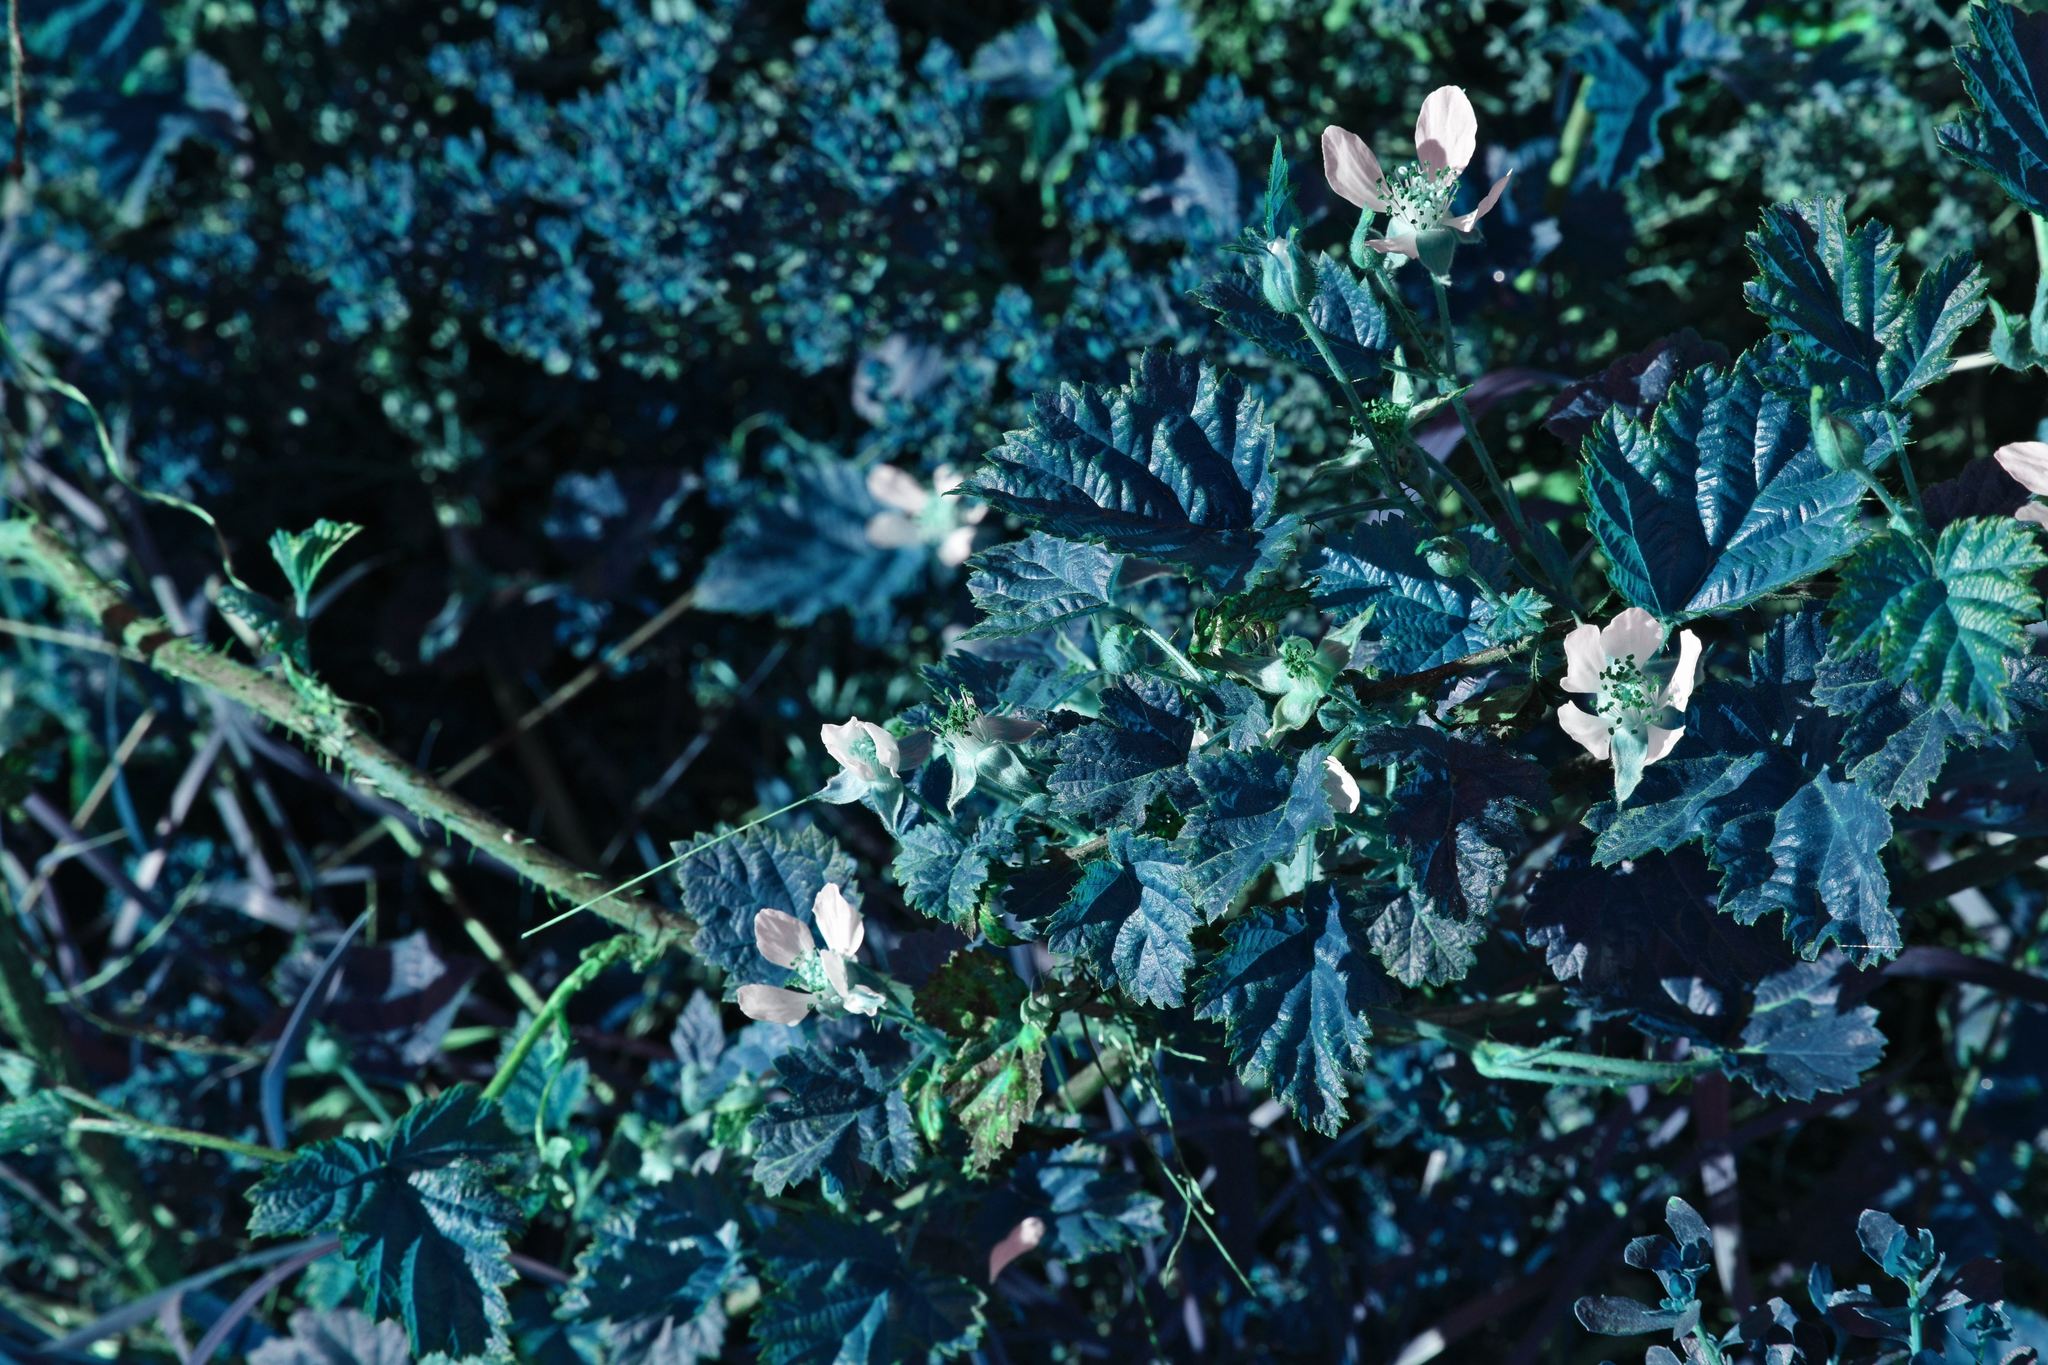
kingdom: Plantae
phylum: Tracheophyta
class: Magnoliopsida
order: Rosales
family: Rosaceae
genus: Rubus
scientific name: Rubus ursinus
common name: Pacific blackberry
